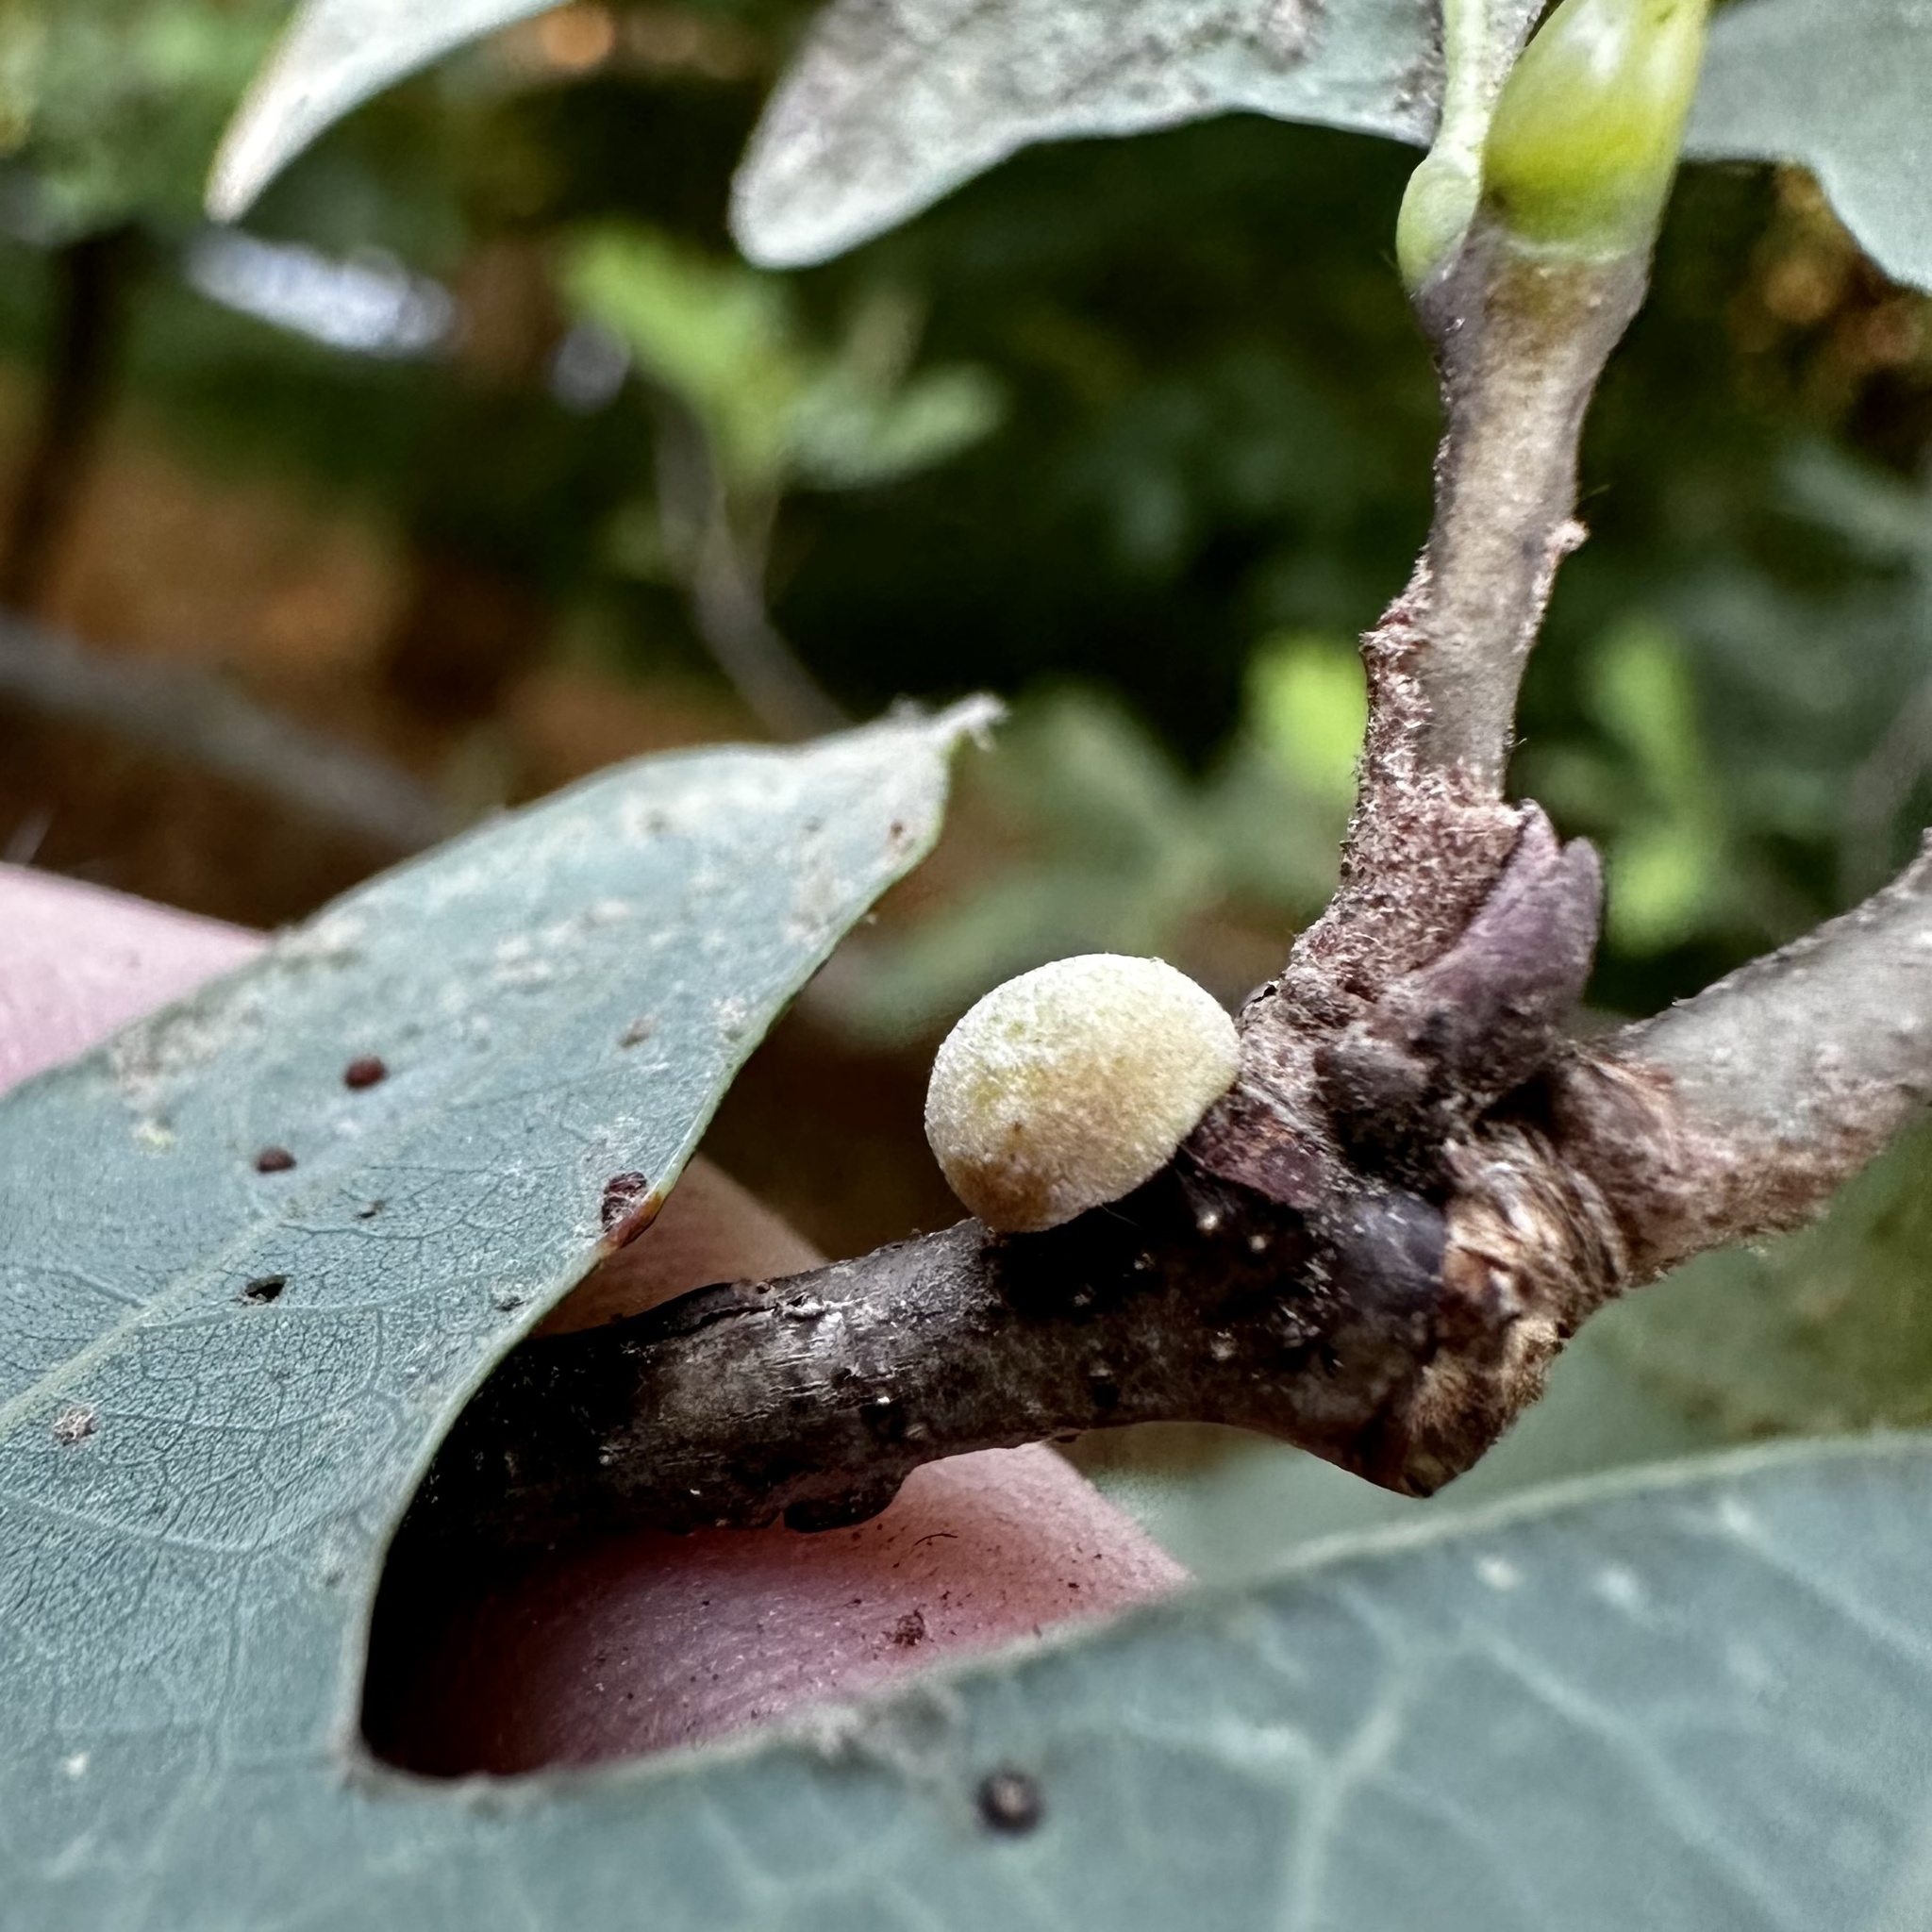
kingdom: Animalia
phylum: Arthropoda
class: Insecta
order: Hymenoptera
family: Cynipidae
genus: Disholcaspis
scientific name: Disholcaspis quercusglobulus
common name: Round bullet gall wasp
